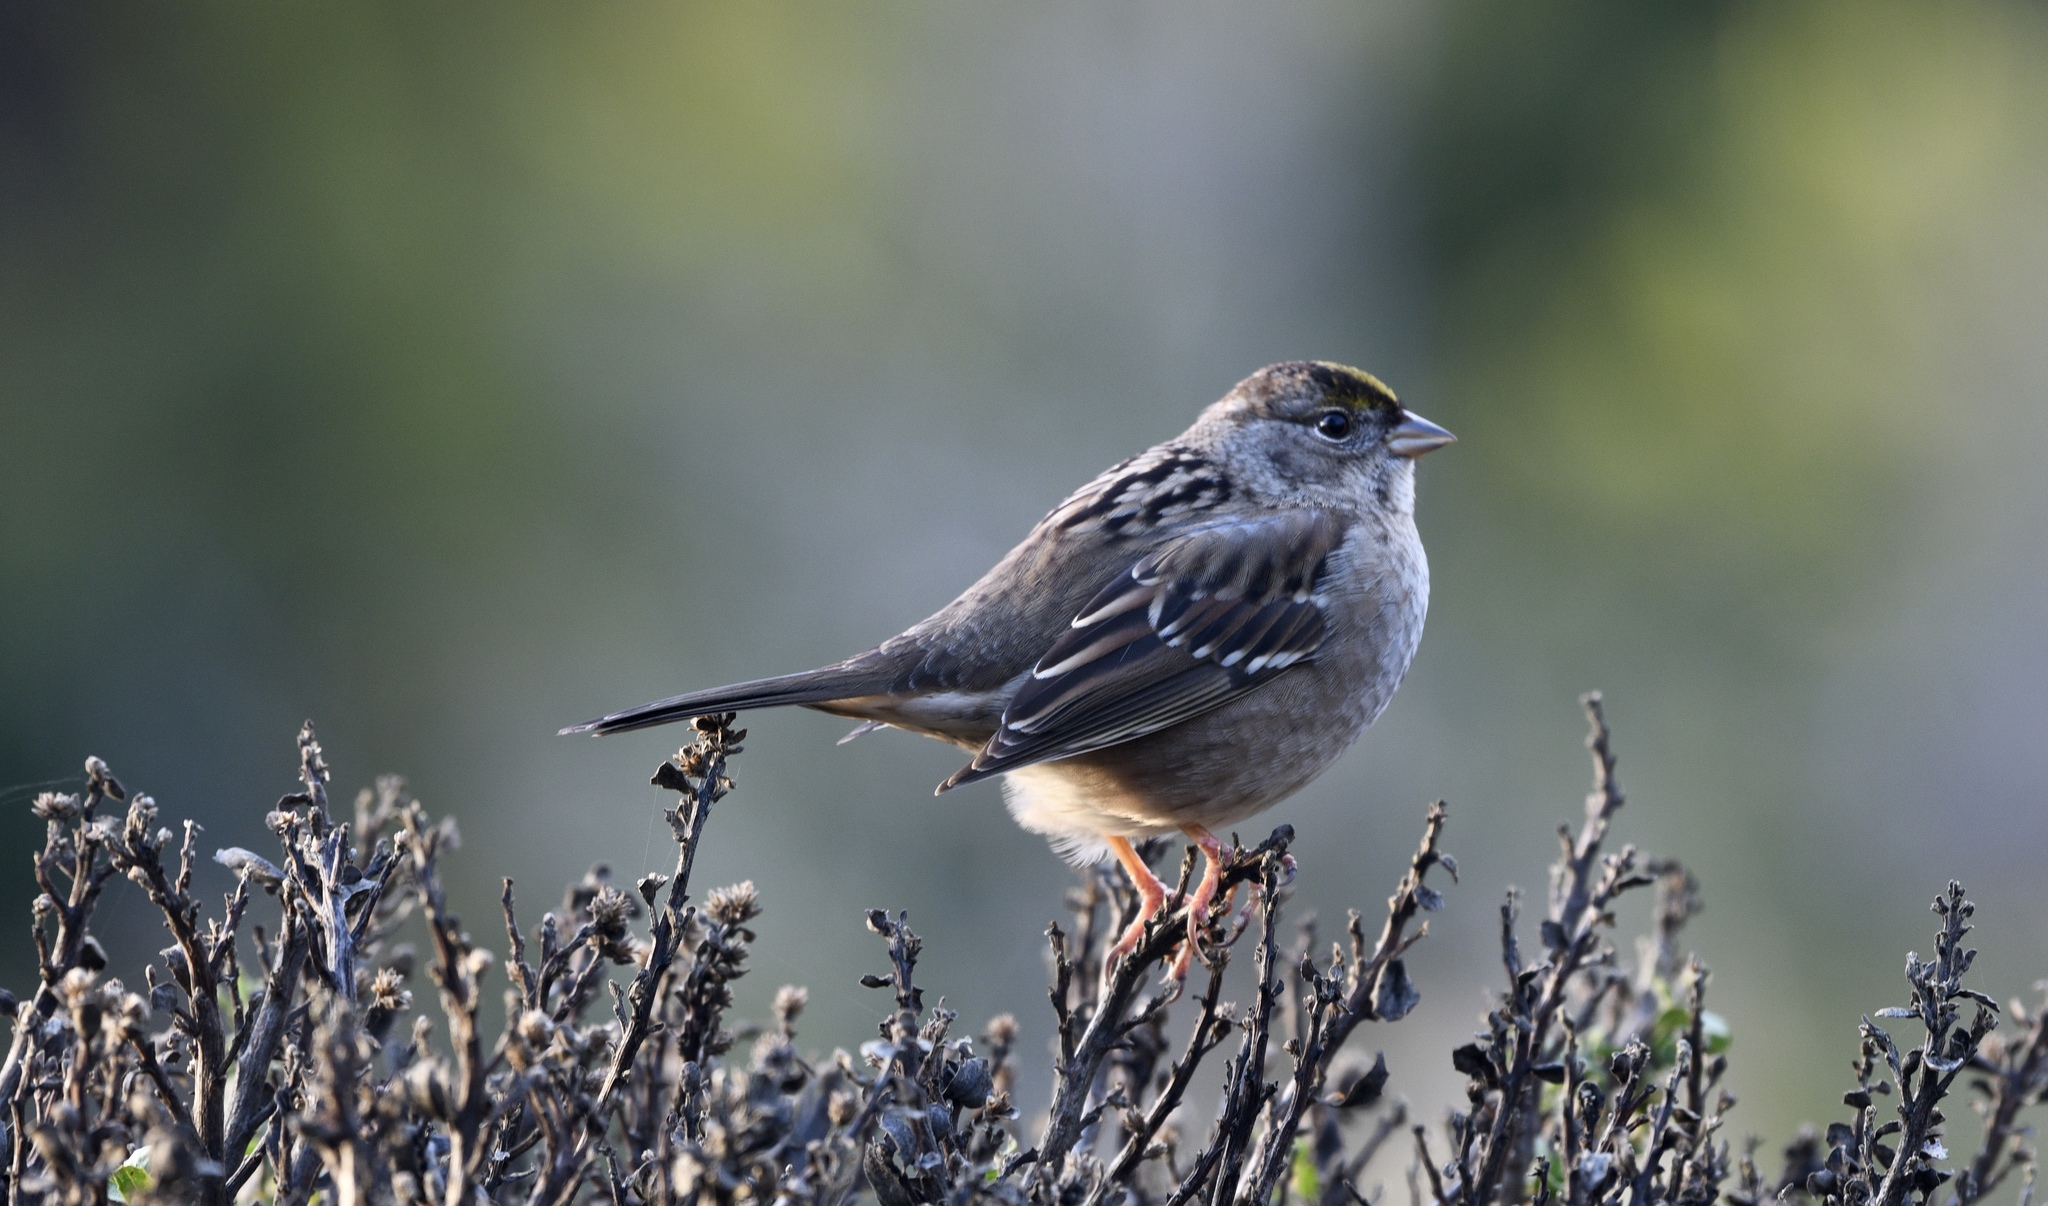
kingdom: Animalia
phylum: Chordata
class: Aves
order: Passeriformes
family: Passerellidae
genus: Zonotrichia
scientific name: Zonotrichia atricapilla
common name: Golden-crowned sparrow
